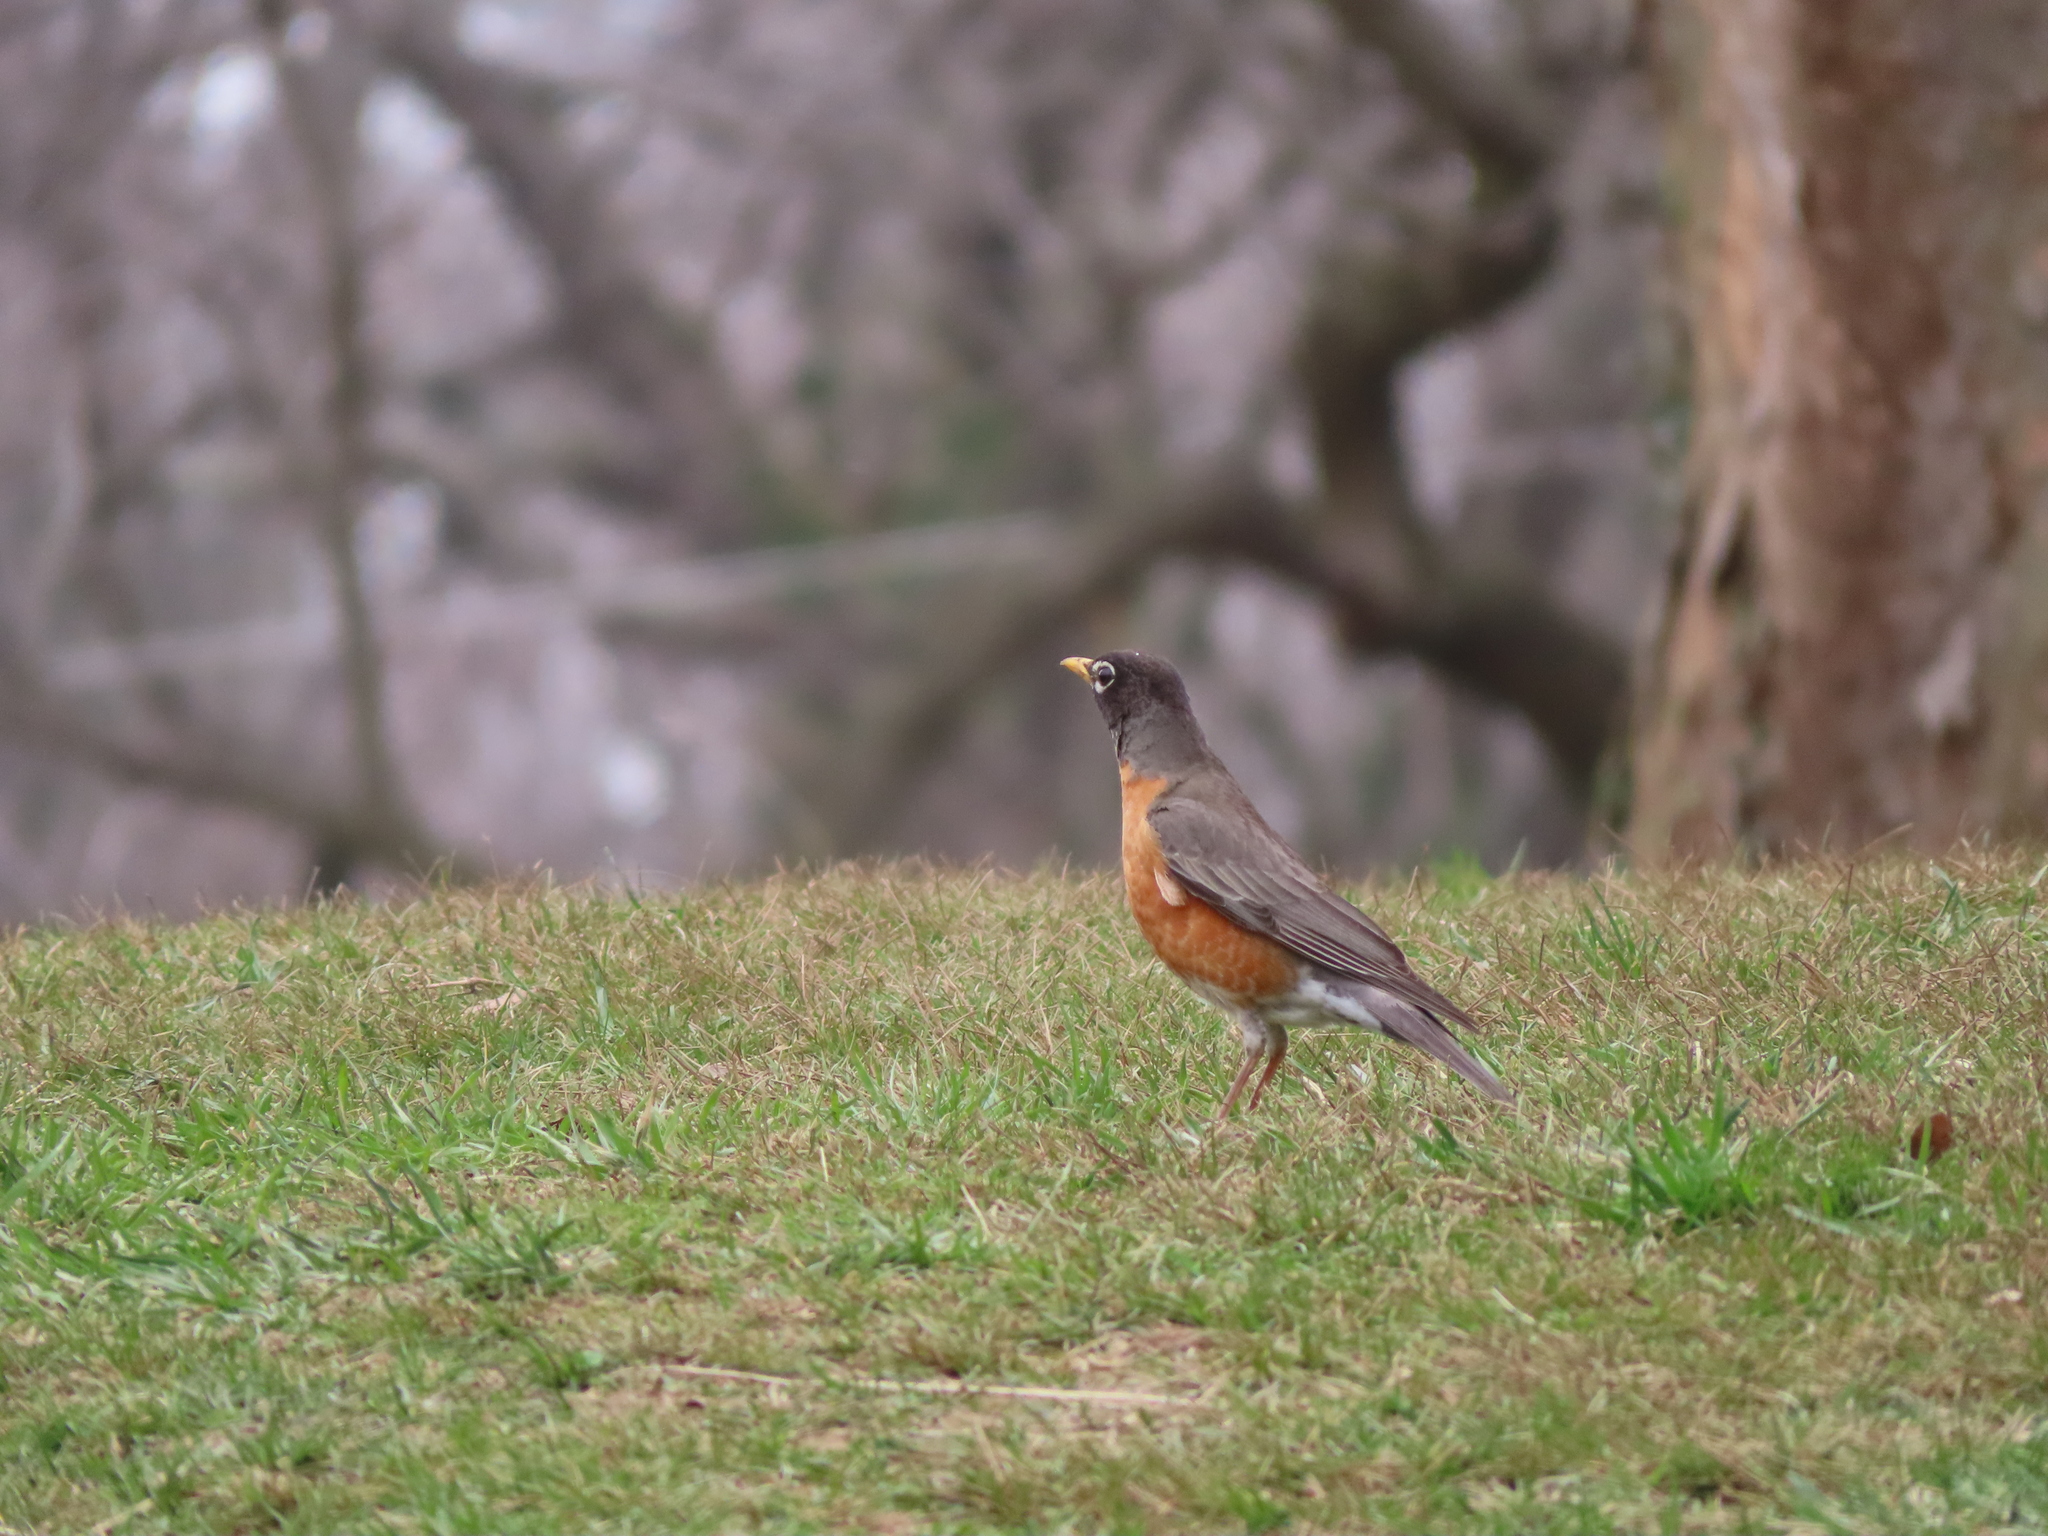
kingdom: Animalia
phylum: Chordata
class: Aves
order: Passeriformes
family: Turdidae
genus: Turdus
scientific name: Turdus migratorius
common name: American robin
